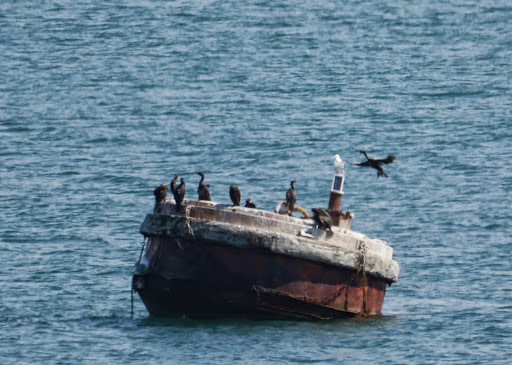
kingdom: Animalia
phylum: Chordata
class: Aves
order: Suliformes
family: Phalacrocoracidae
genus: Phalacrocorax
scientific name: Phalacrocorax pelagicus
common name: Pelagic cormorant
